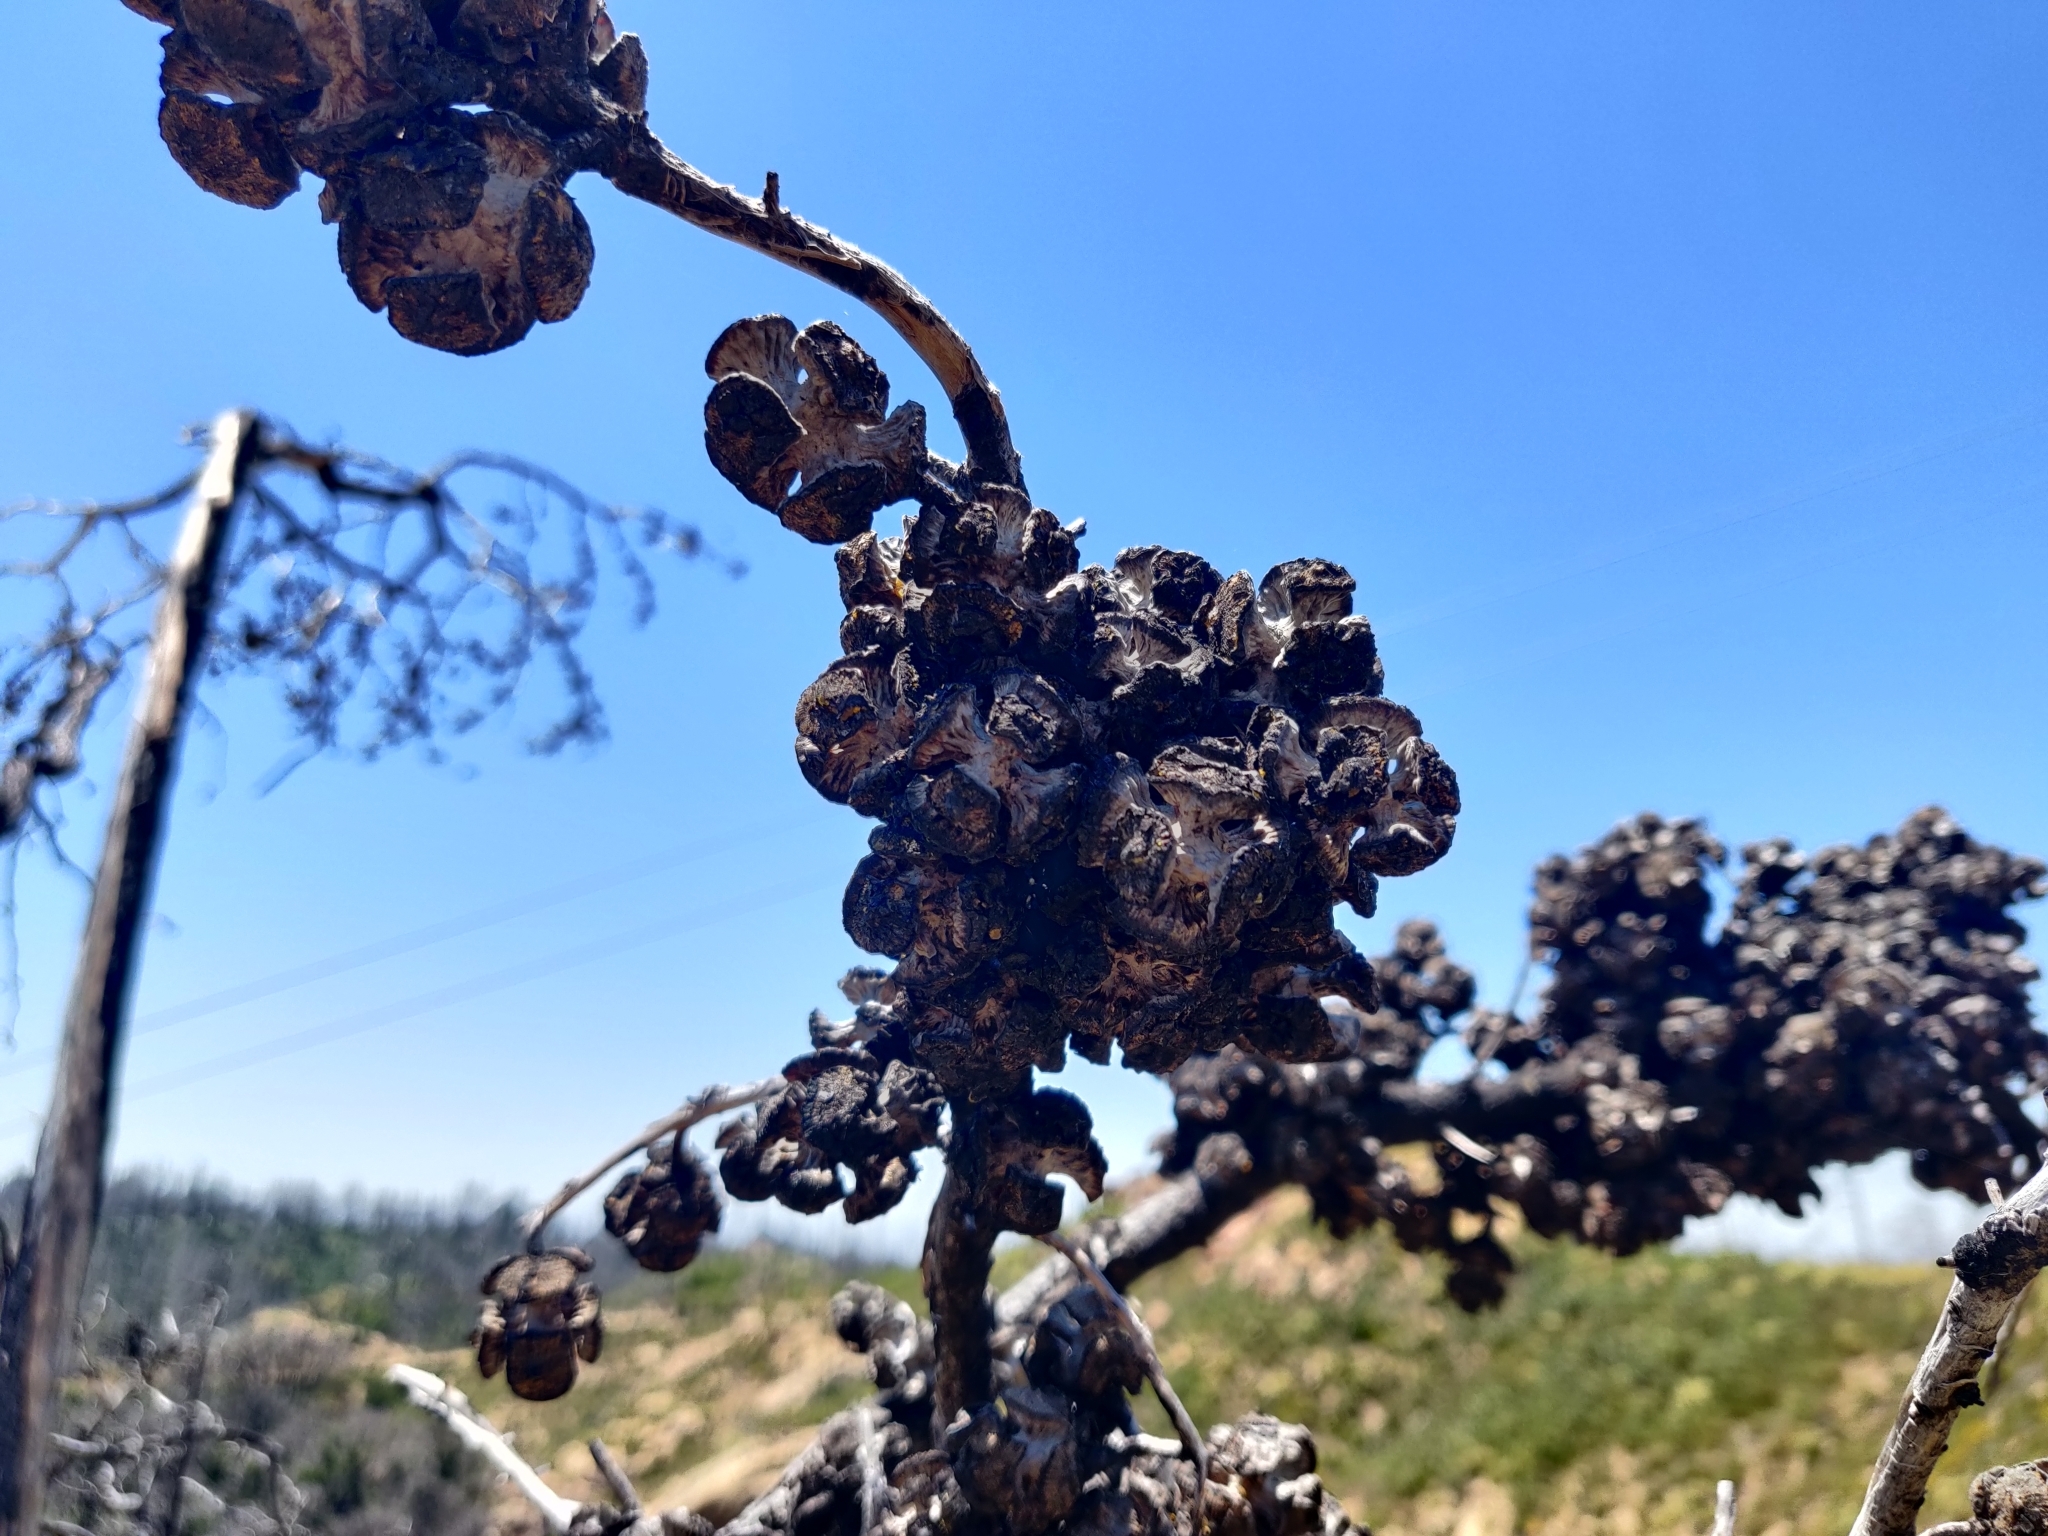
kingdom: Plantae
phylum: Tracheophyta
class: Pinopsida
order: Pinales
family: Cupressaceae
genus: Cupressus
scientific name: Cupressus goveniana
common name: Gowen cypress
